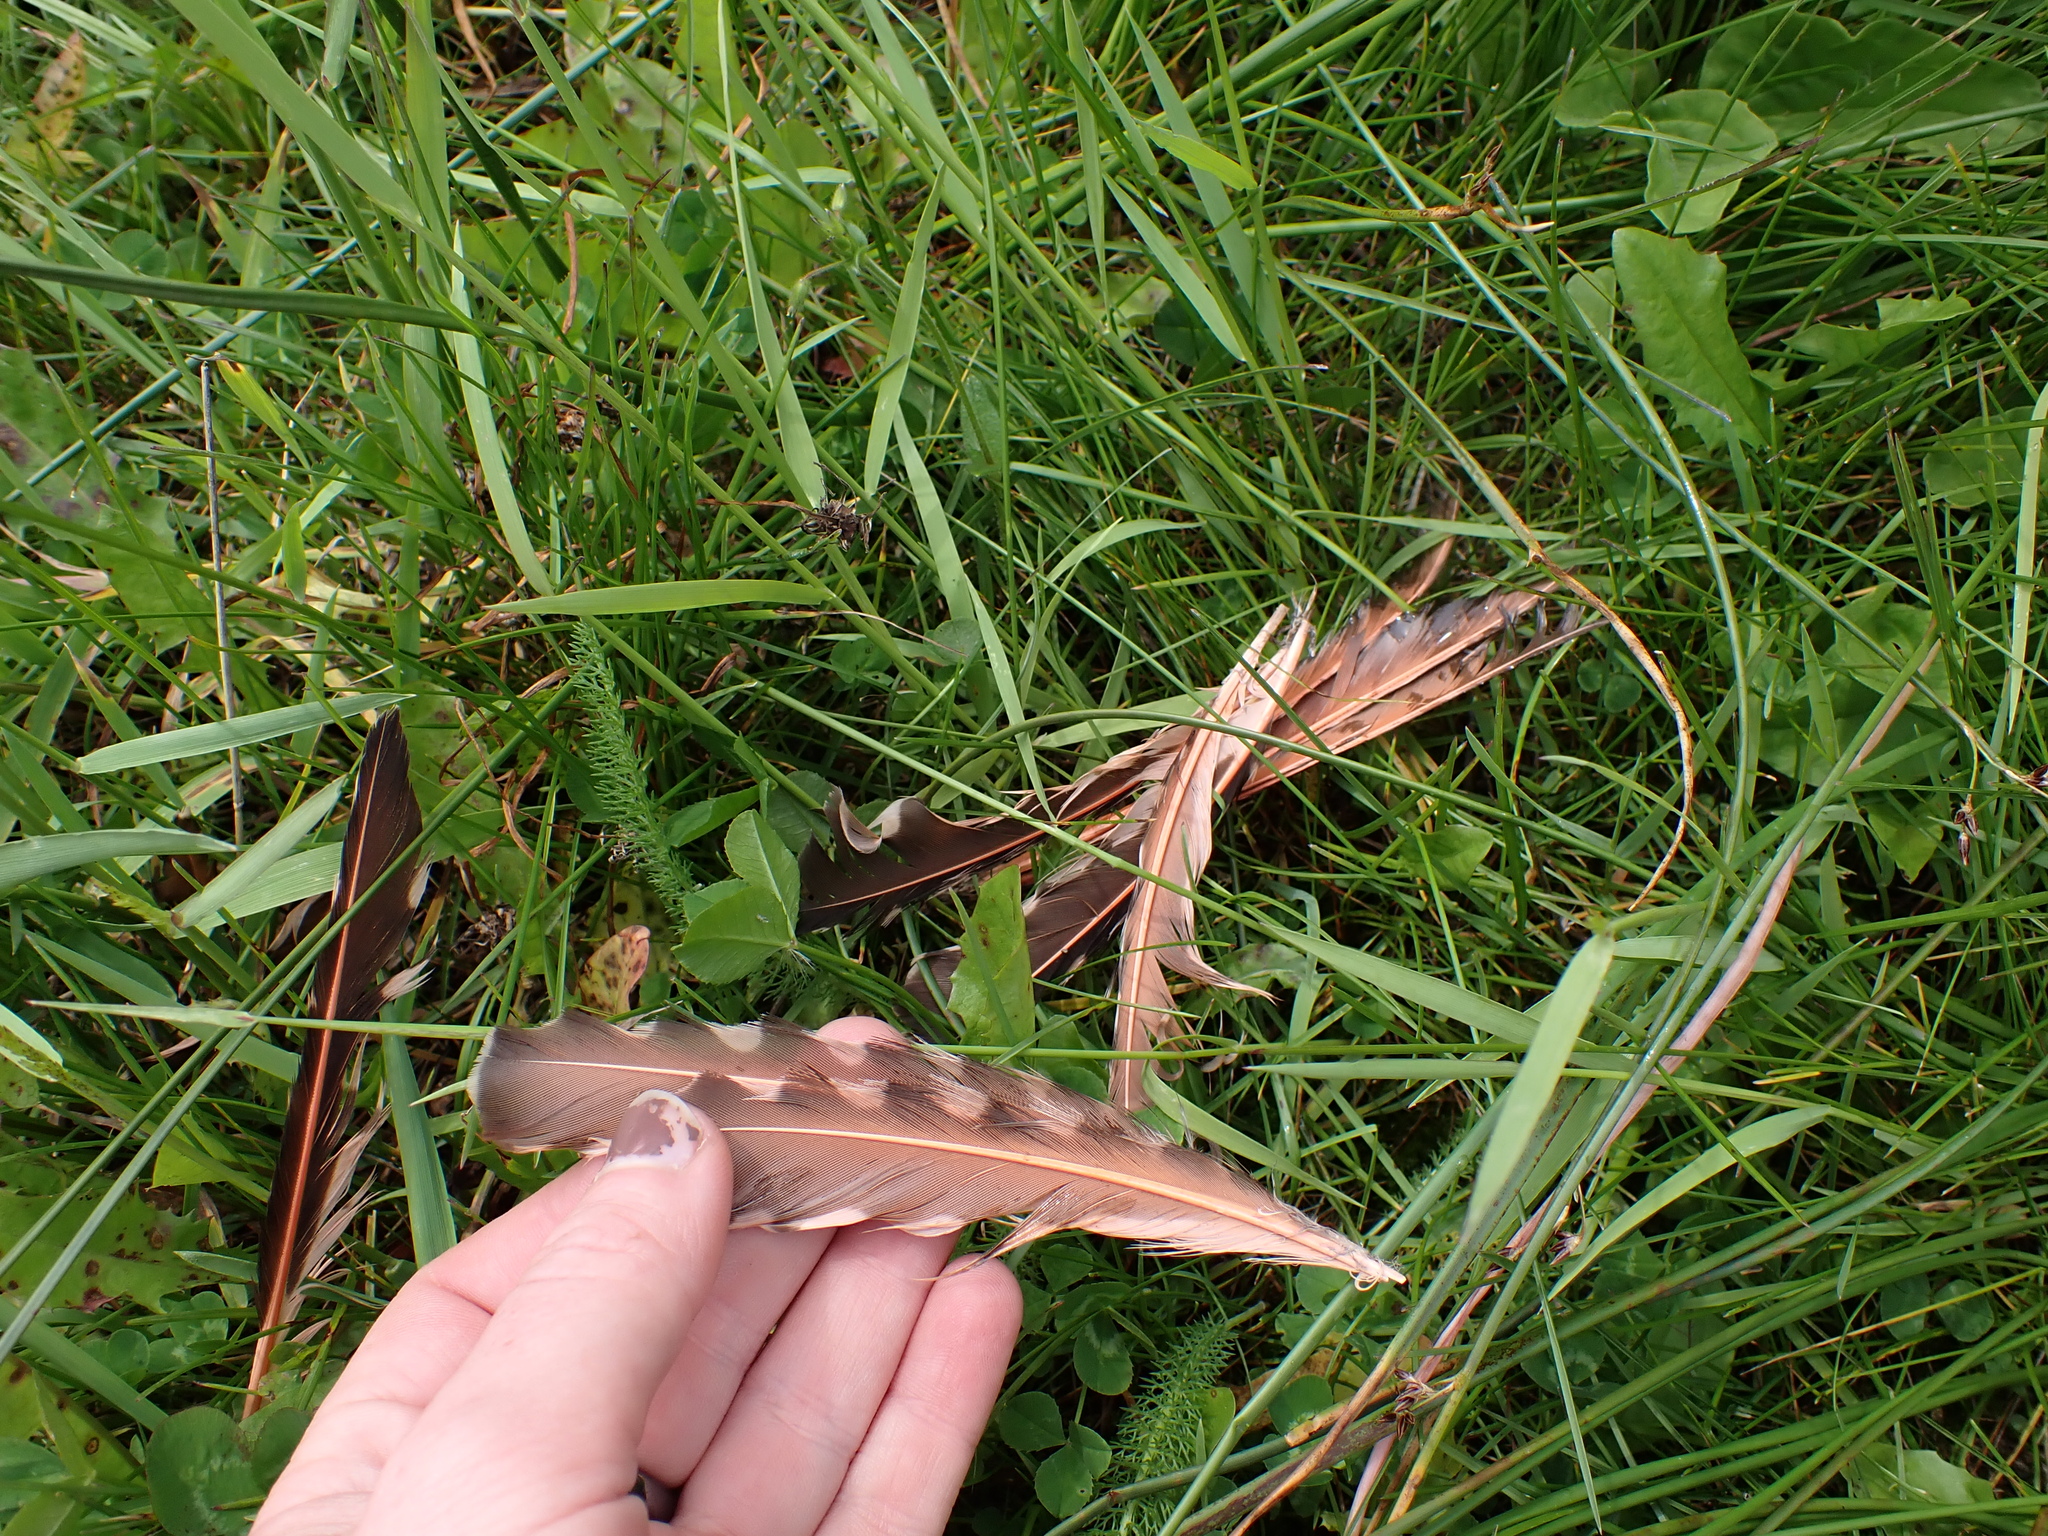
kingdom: Animalia
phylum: Chordata
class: Aves
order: Piciformes
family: Picidae
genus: Colaptes
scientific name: Colaptes auratus
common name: Northern flicker
